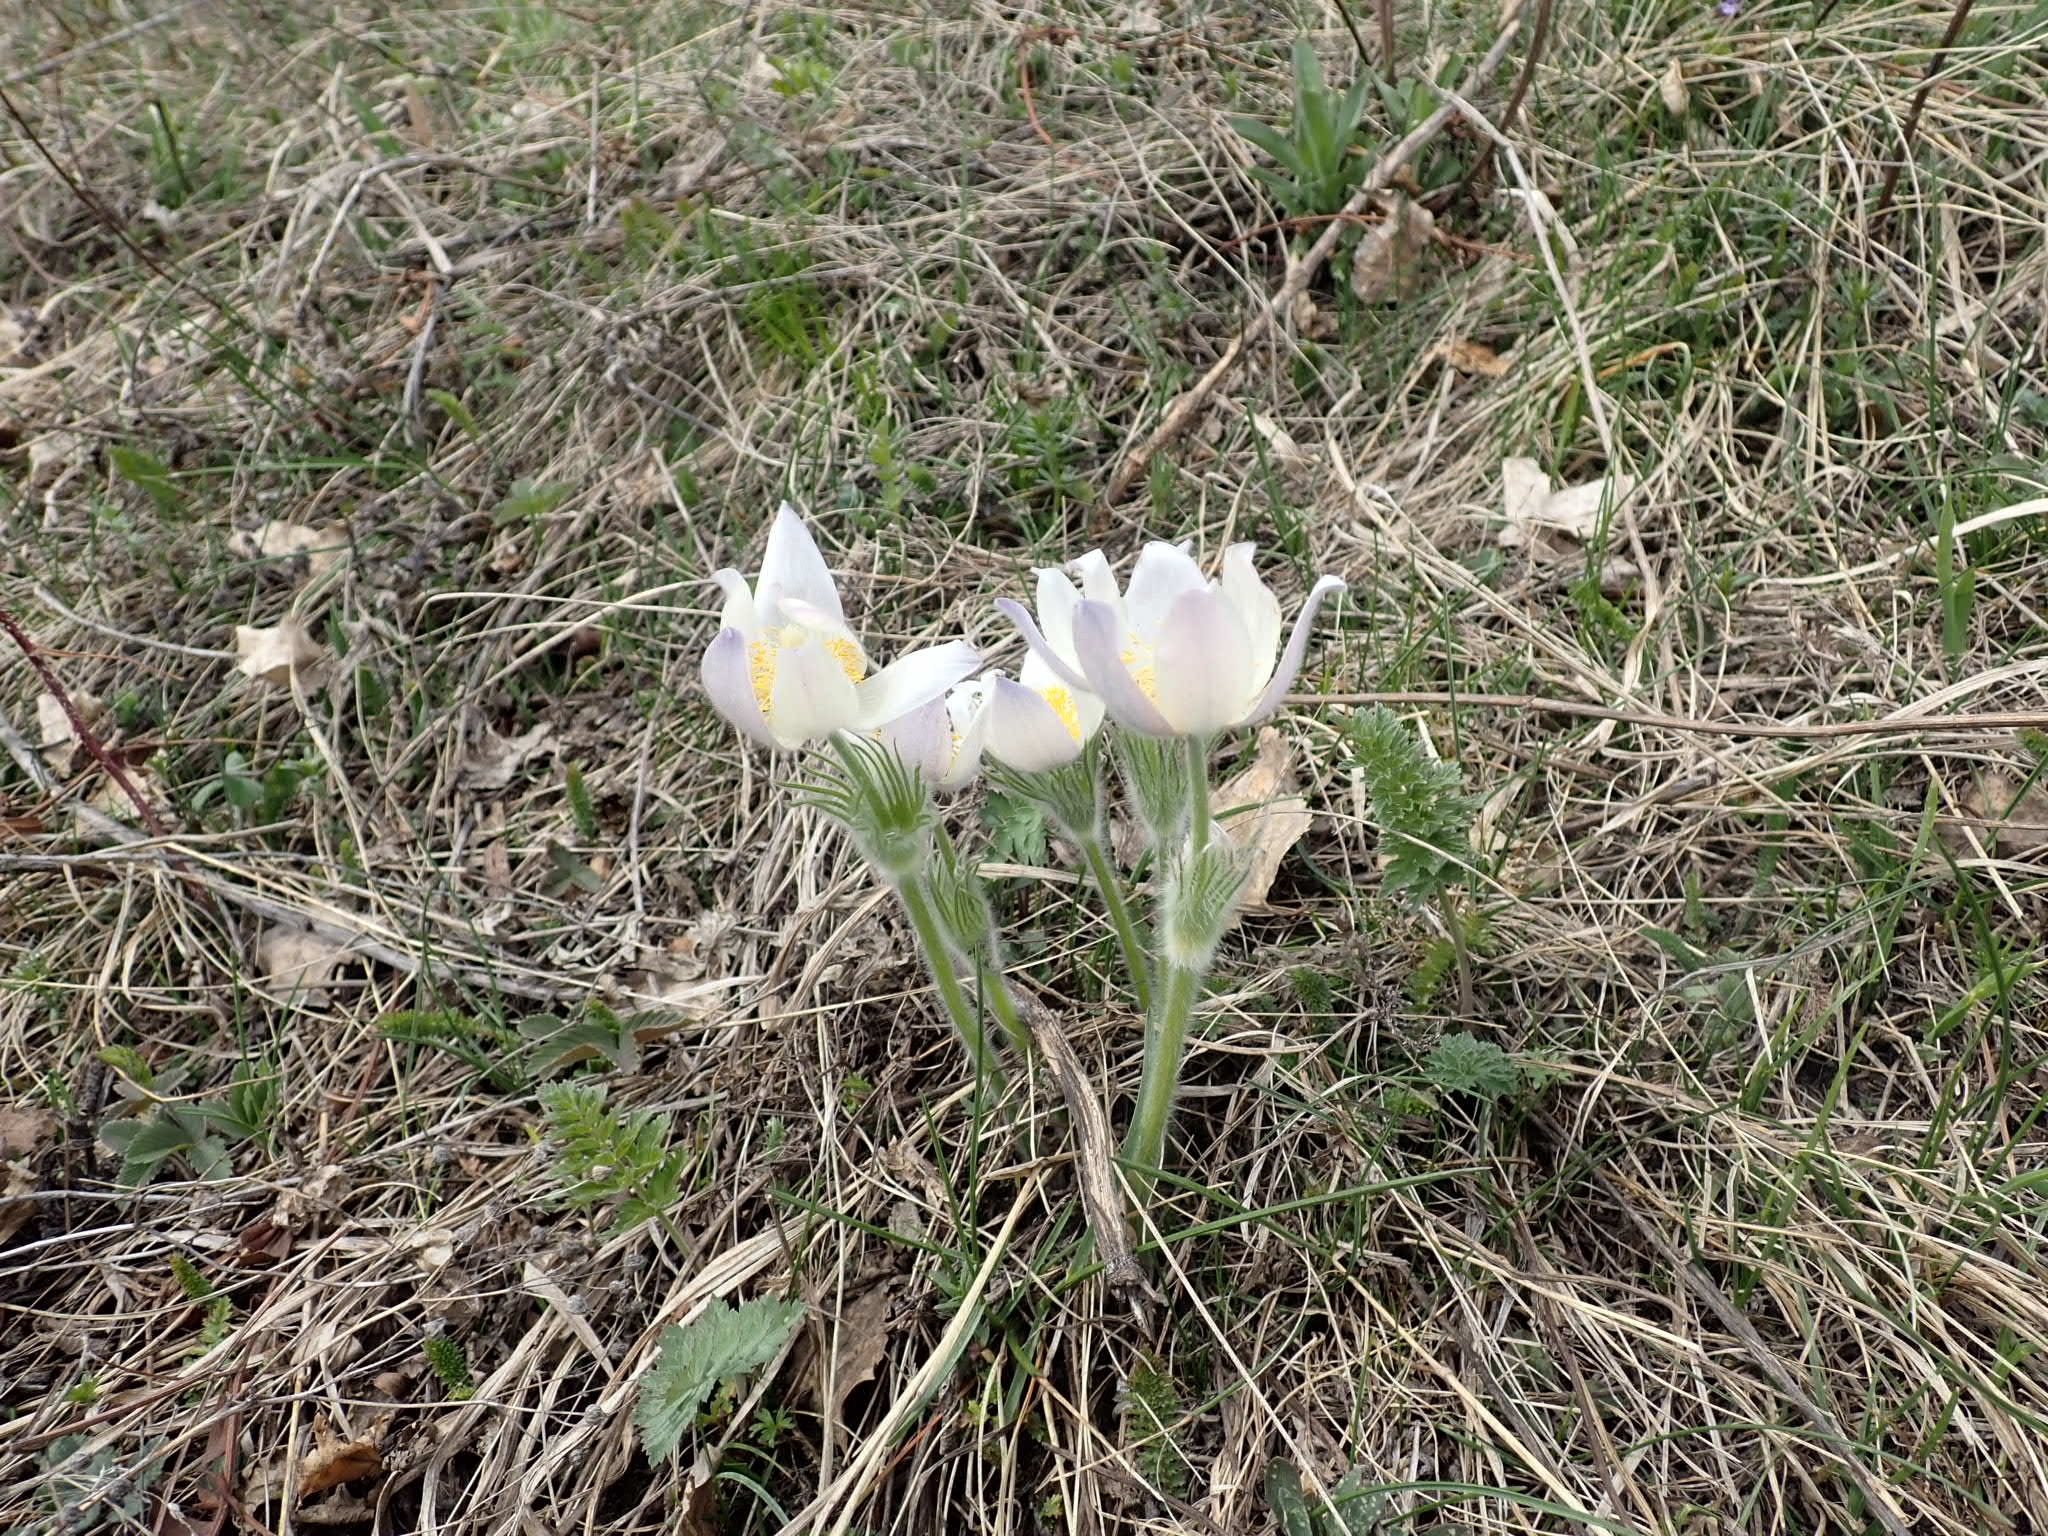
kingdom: Plantae
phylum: Tracheophyta
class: Magnoliopsida
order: Ranunculales
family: Ranunculaceae
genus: Pulsatilla
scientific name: Pulsatilla patens
